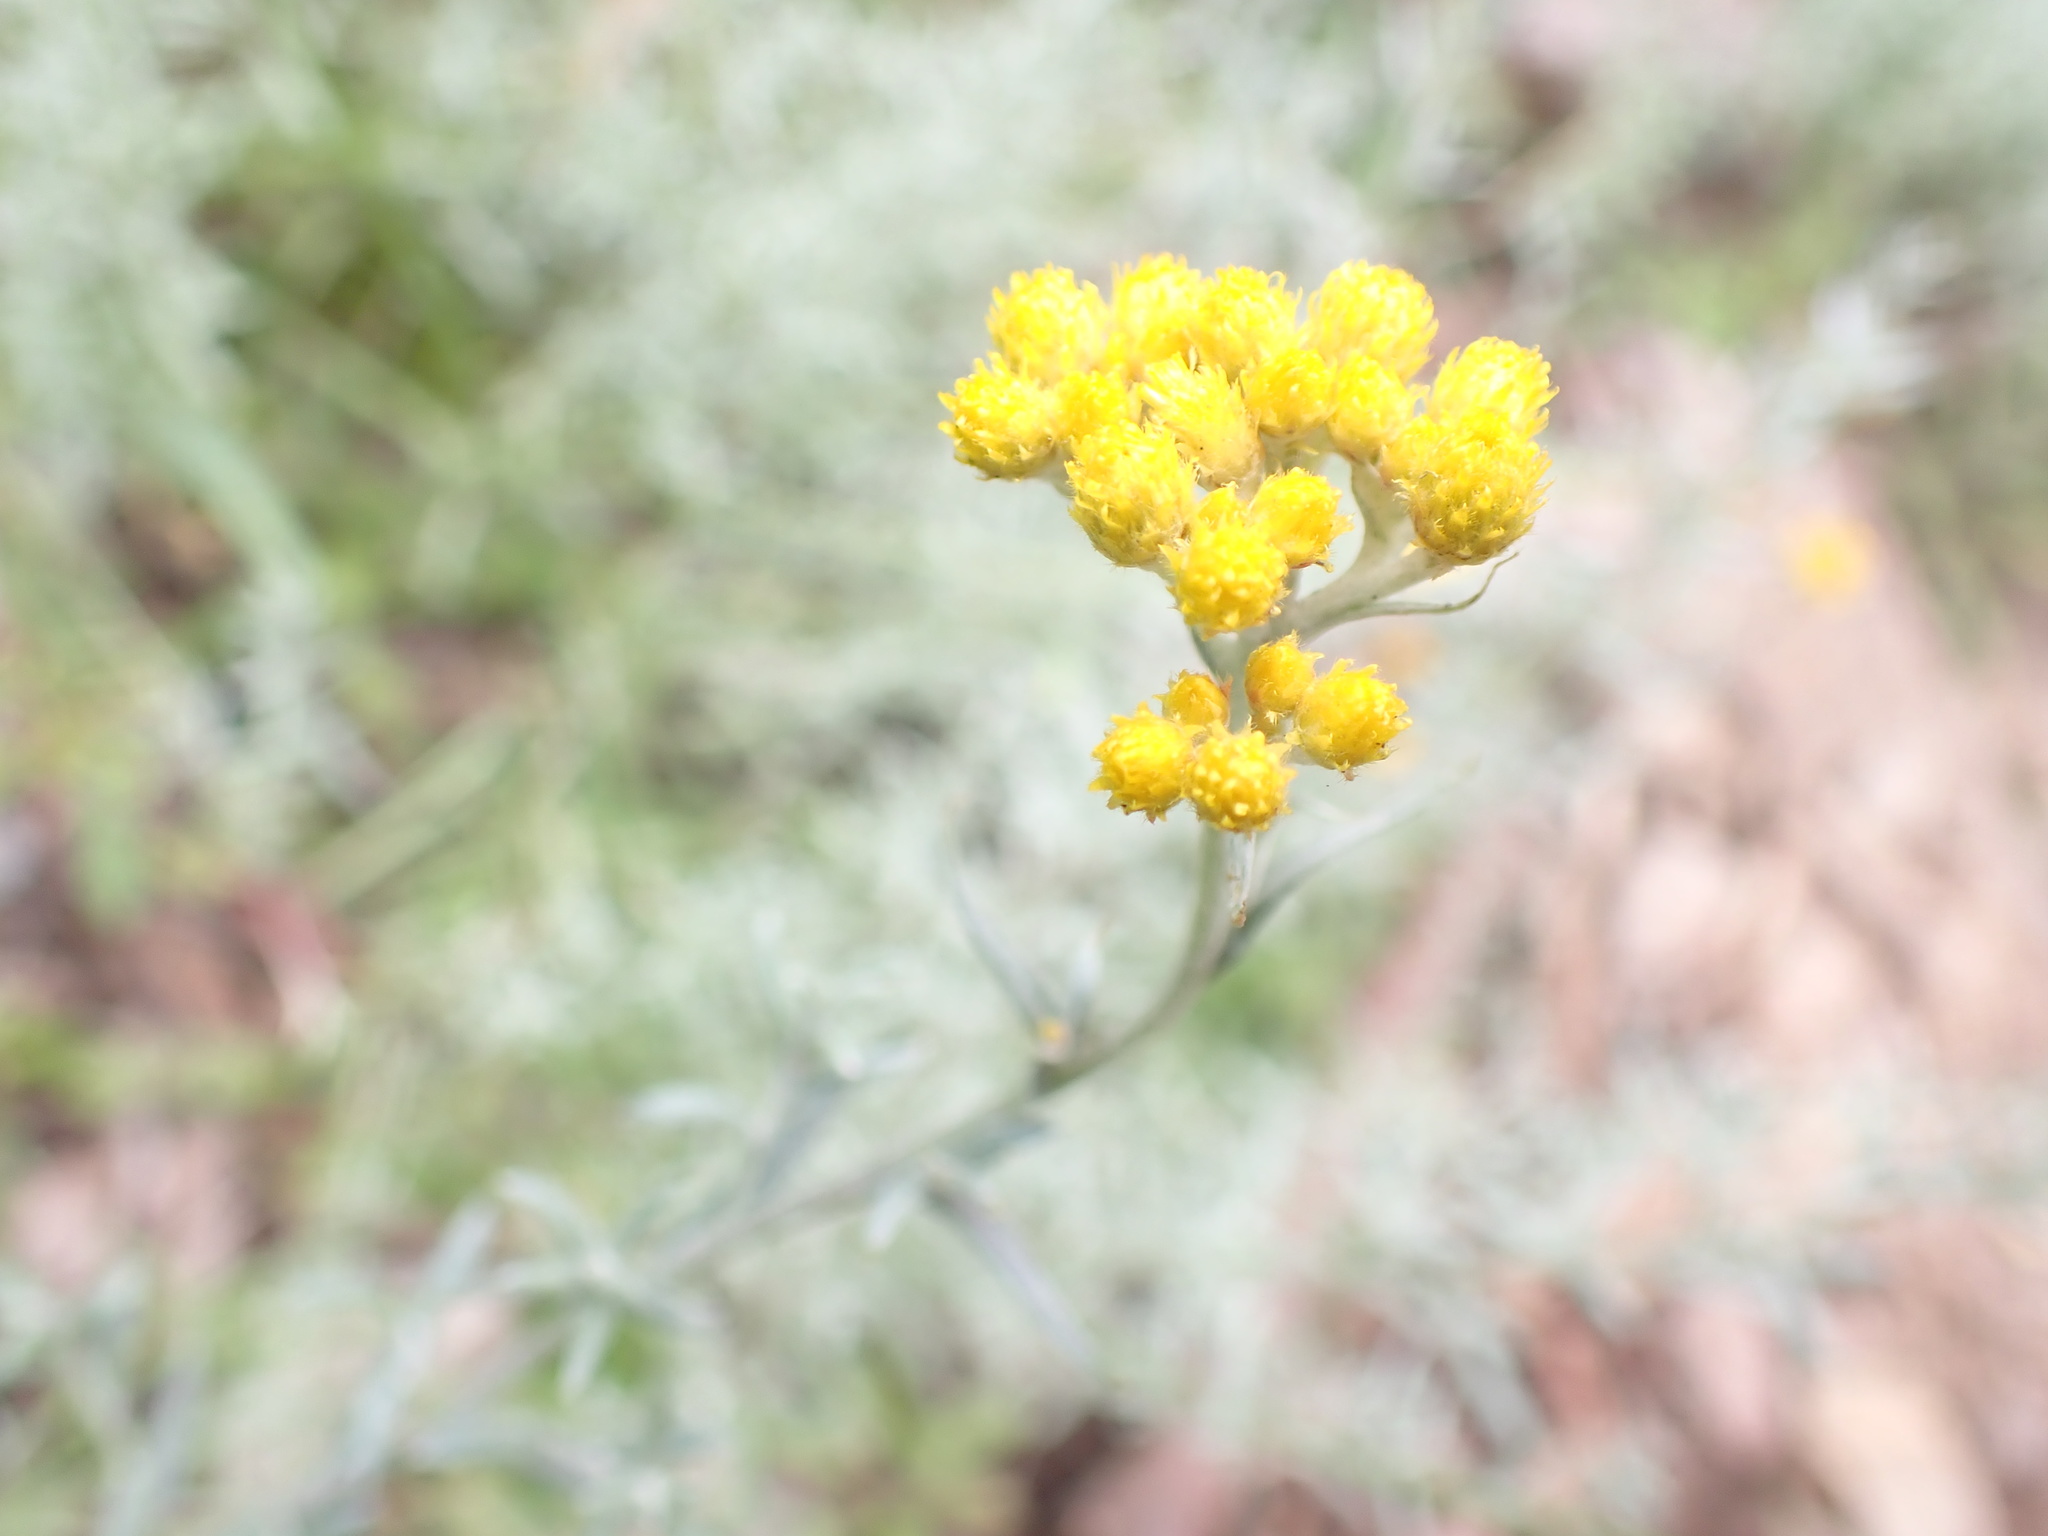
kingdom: Plantae
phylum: Tracheophyta
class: Magnoliopsida
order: Asterales
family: Asteraceae
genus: Chrysocephalum
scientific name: Chrysocephalum semipapposum
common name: Clustered everlasting
